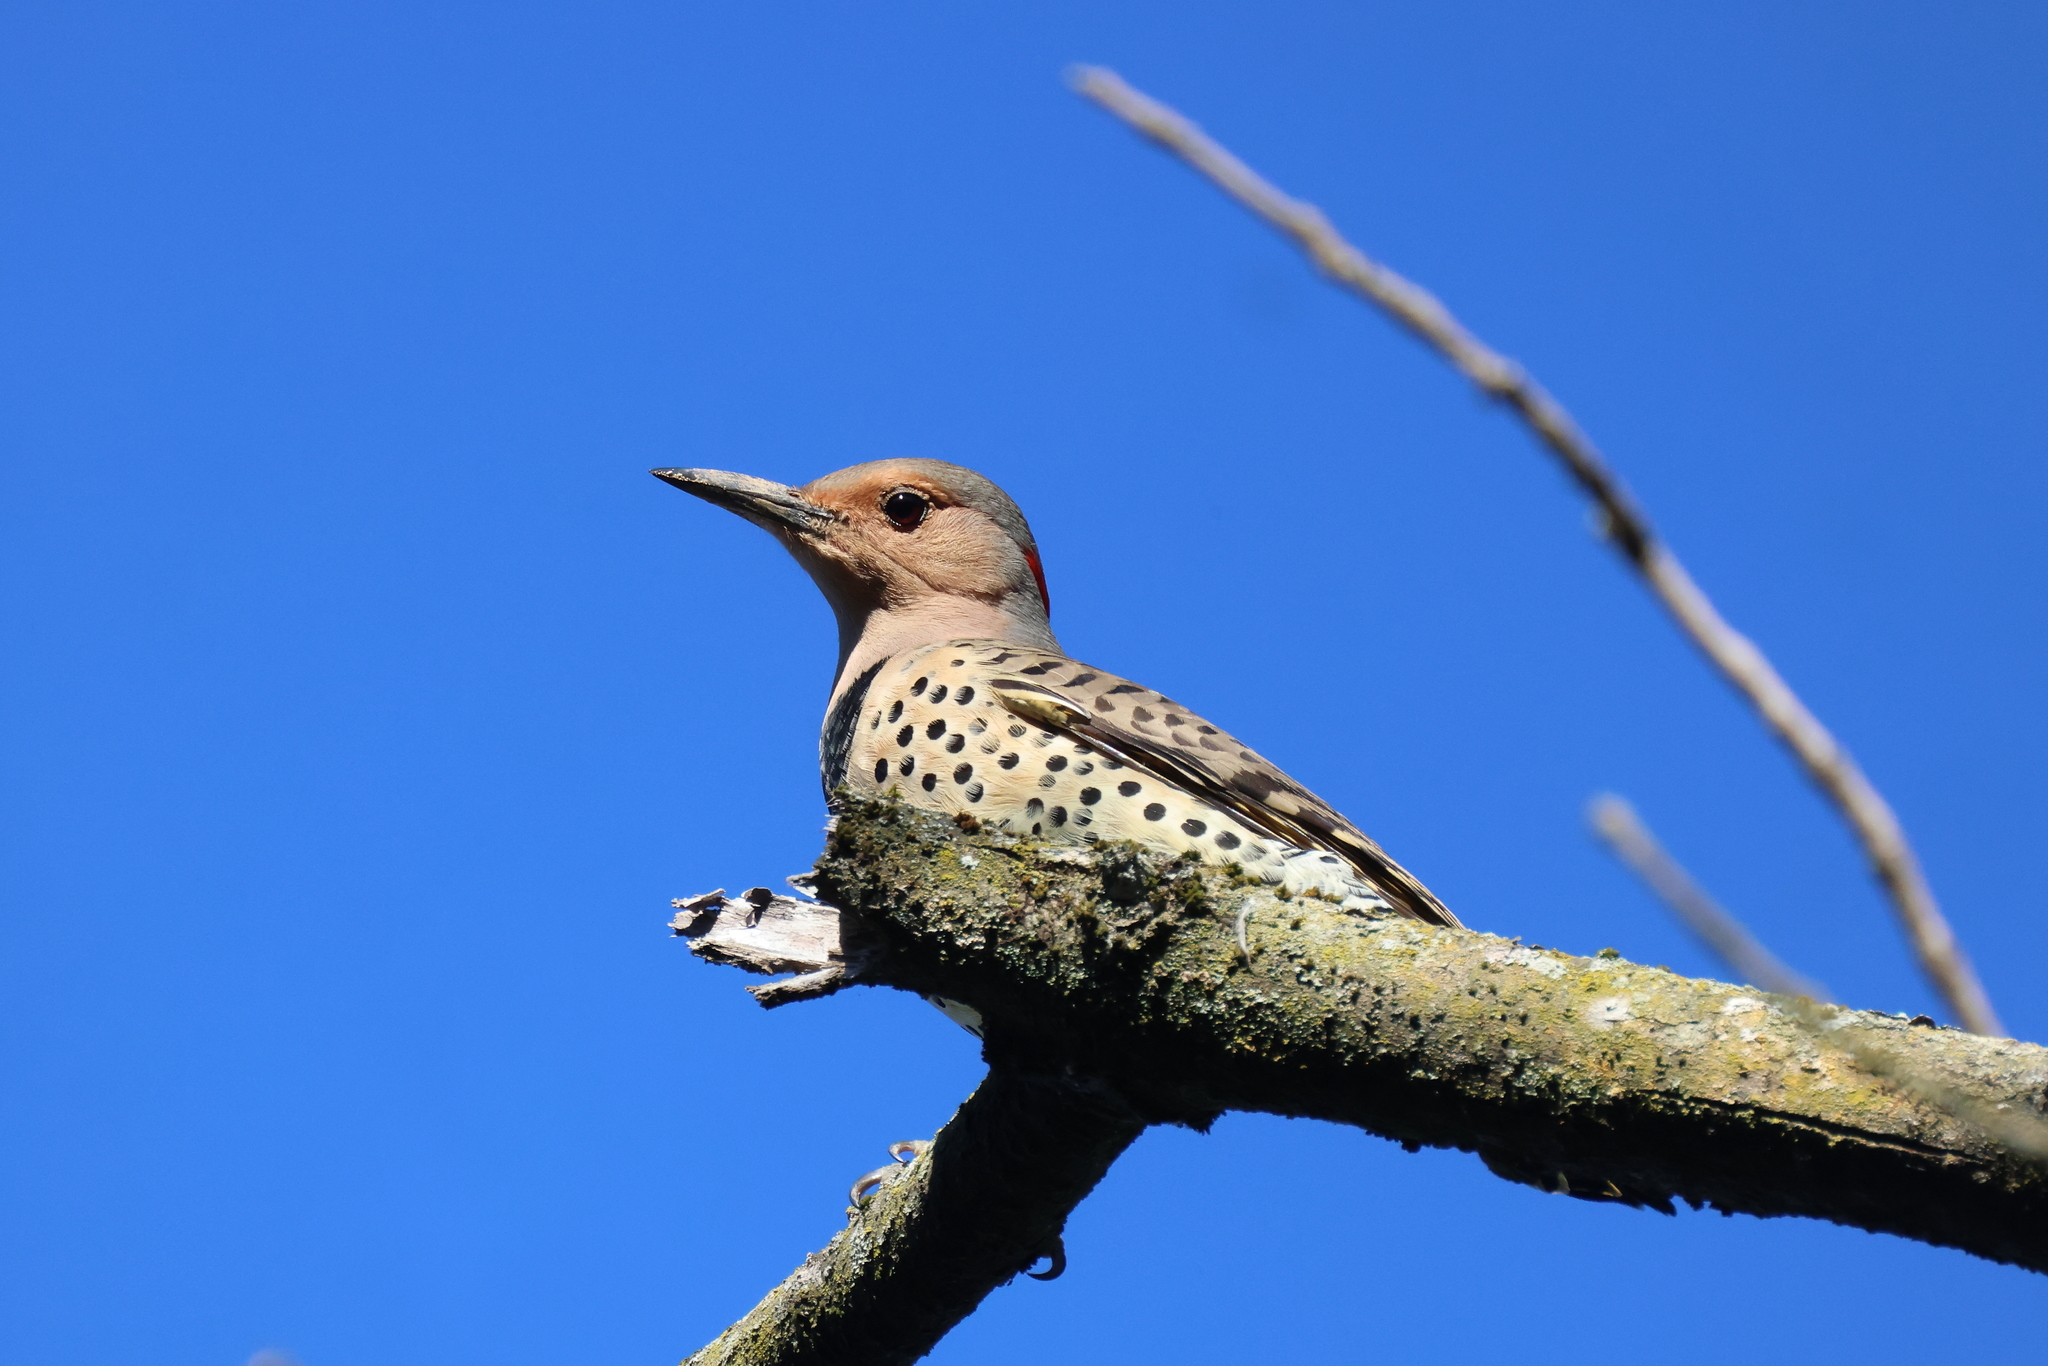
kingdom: Animalia
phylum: Chordata
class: Aves
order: Piciformes
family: Picidae
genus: Colaptes
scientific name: Colaptes auratus
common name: Northern flicker
